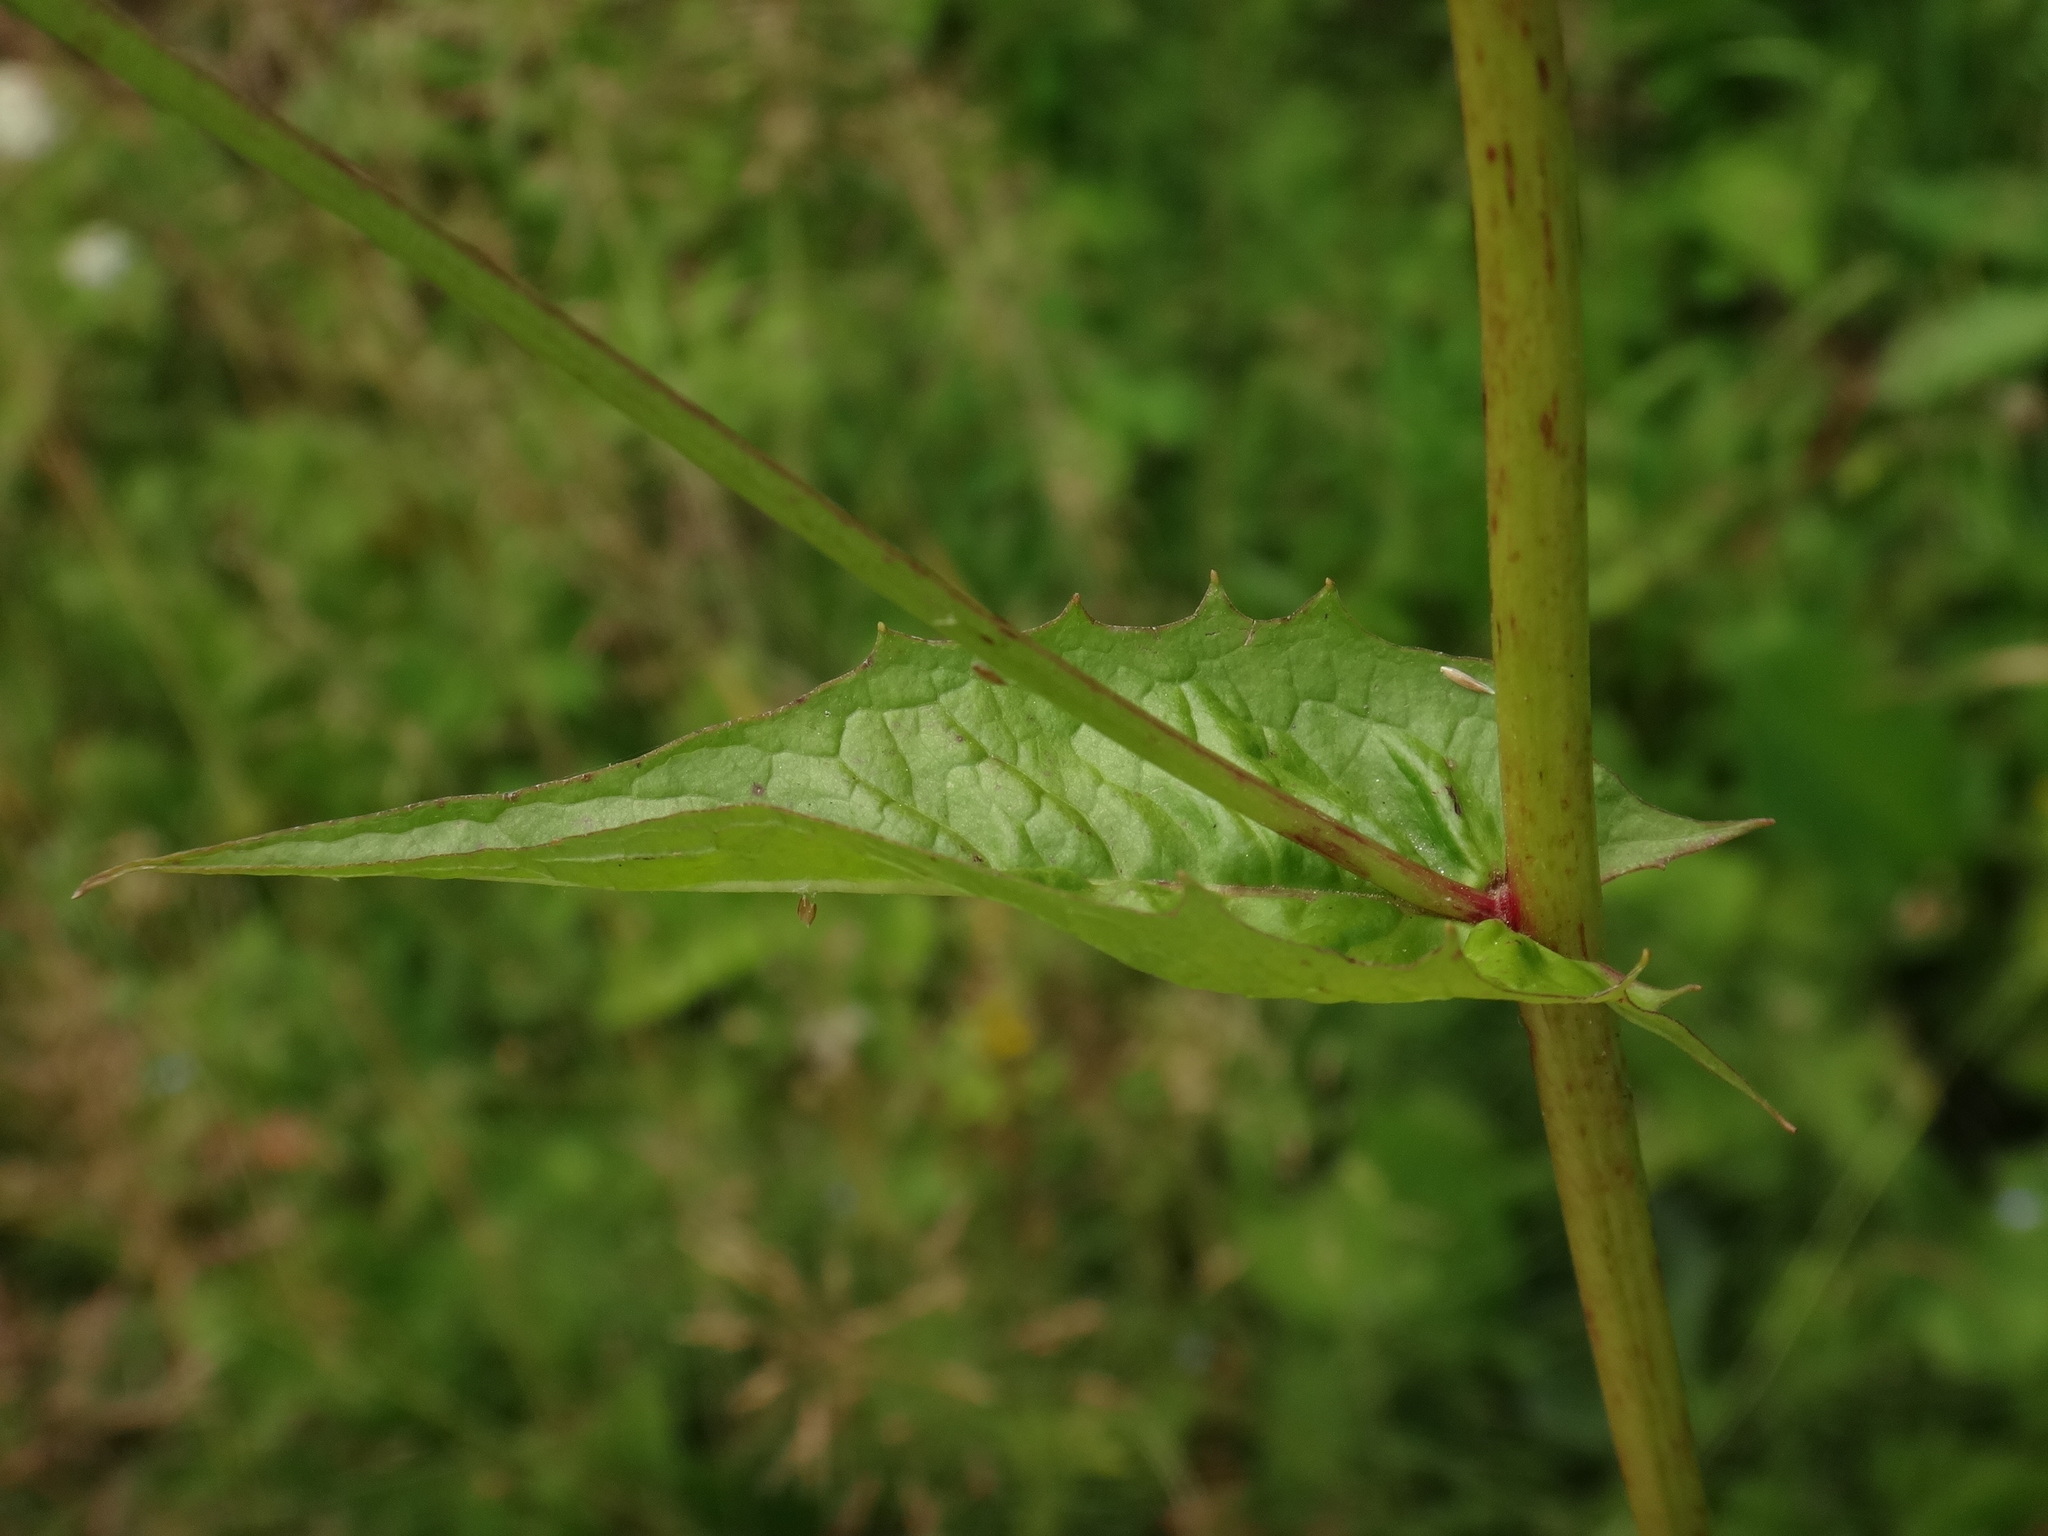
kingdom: Plantae
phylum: Tracheophyta
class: Magnoliopsida
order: Asterales
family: Asteraceae
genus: Crepis
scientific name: Crepis paludosa
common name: Marsh hawk's-beard
